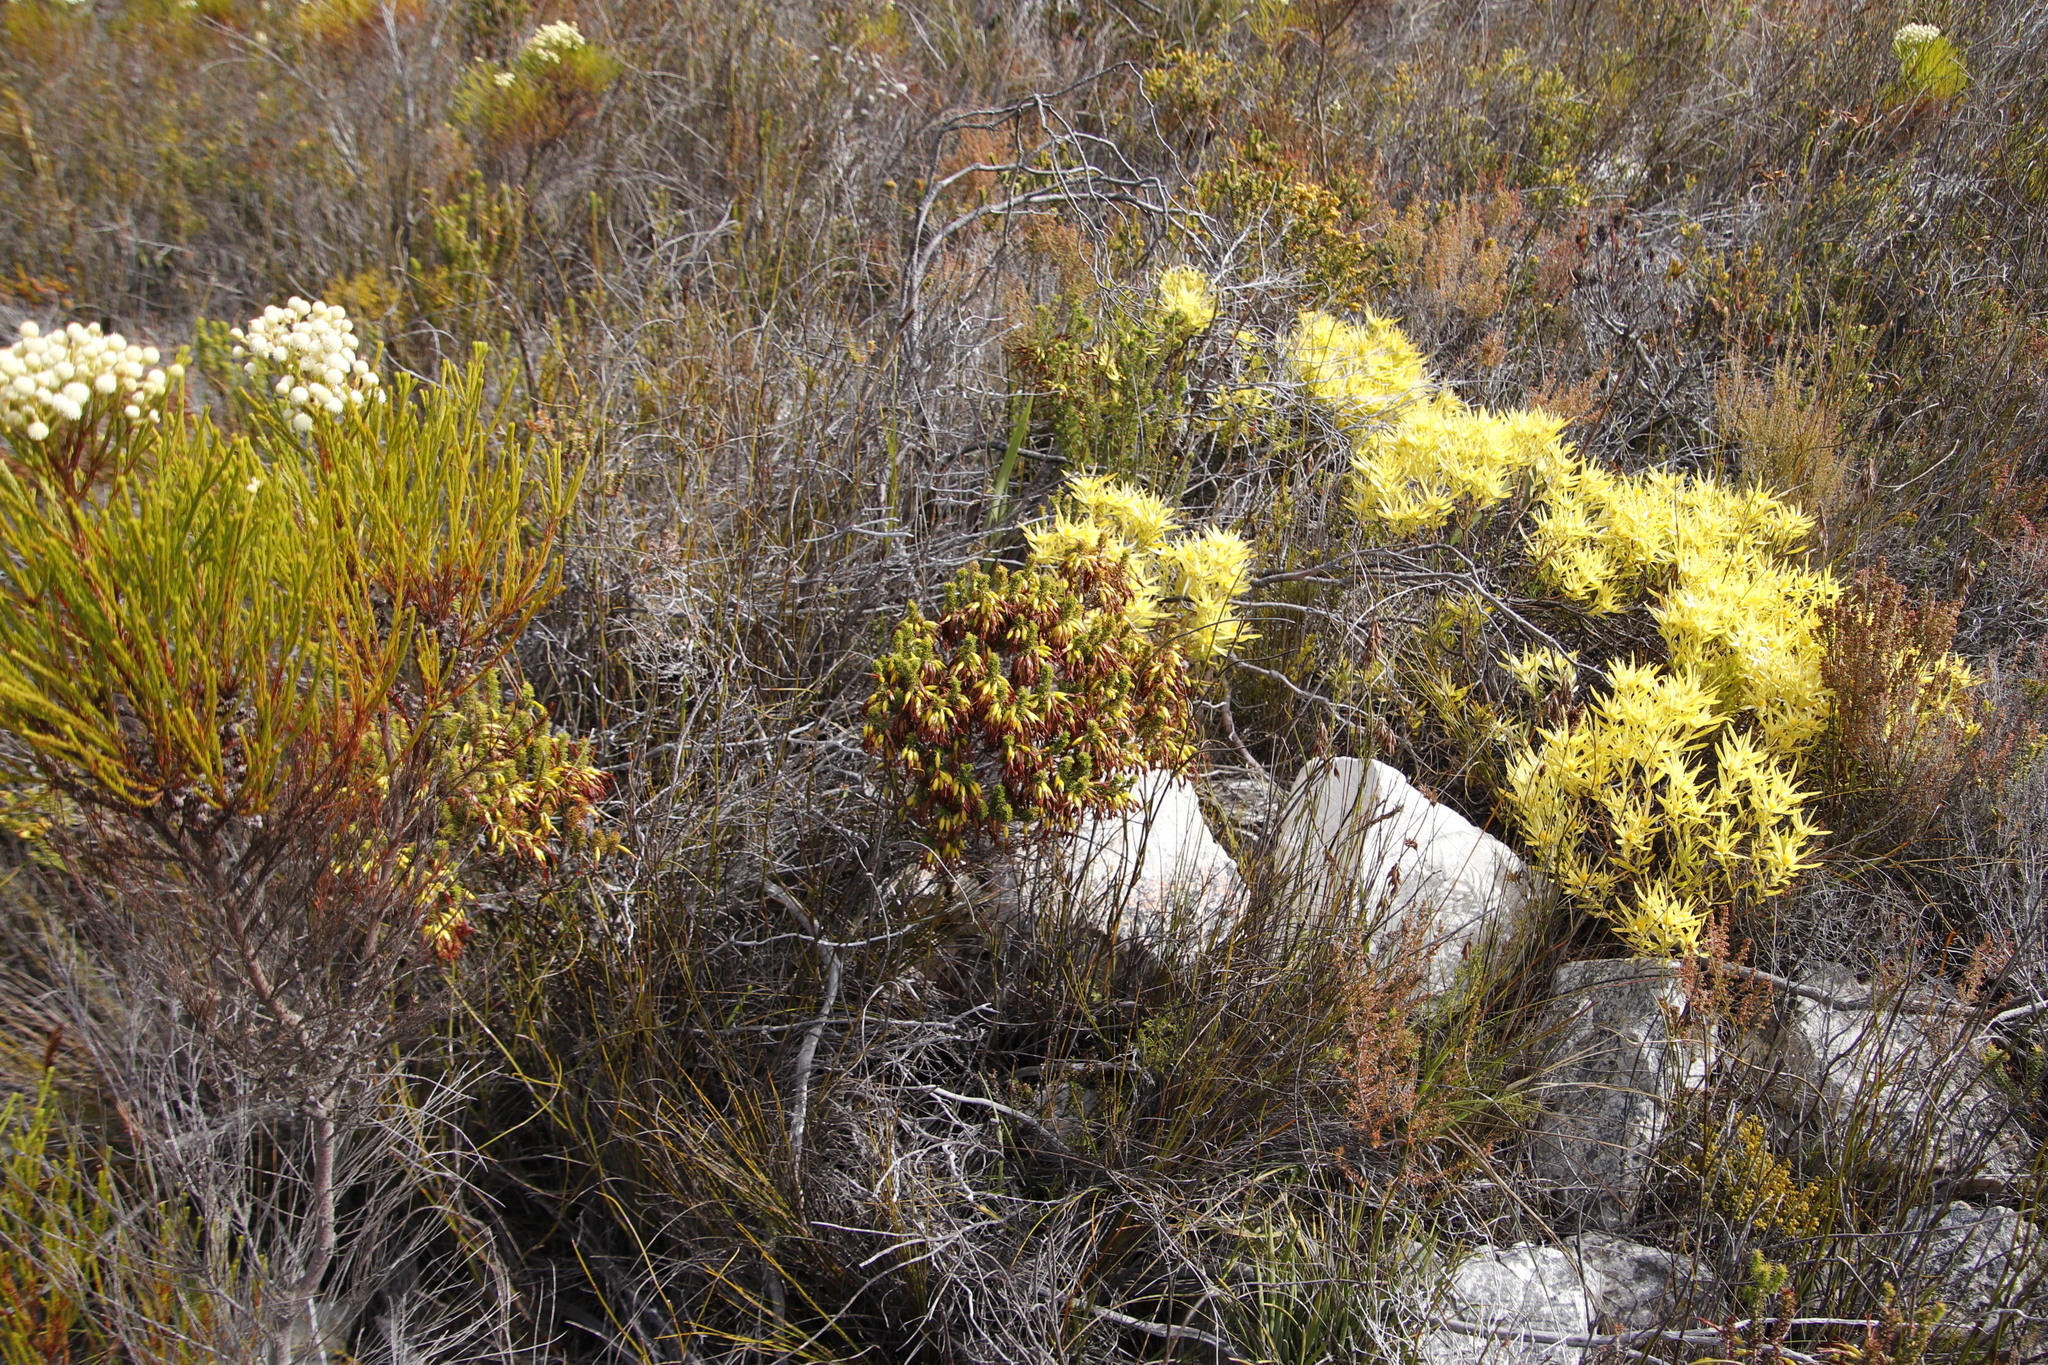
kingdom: Plantae
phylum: Tracheophyta
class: Magnoliopsida
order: Proteales
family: Proteaceae
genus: Leucadendron
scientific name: Leucadendron xanthoconus
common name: Sickle-leaf conebush
